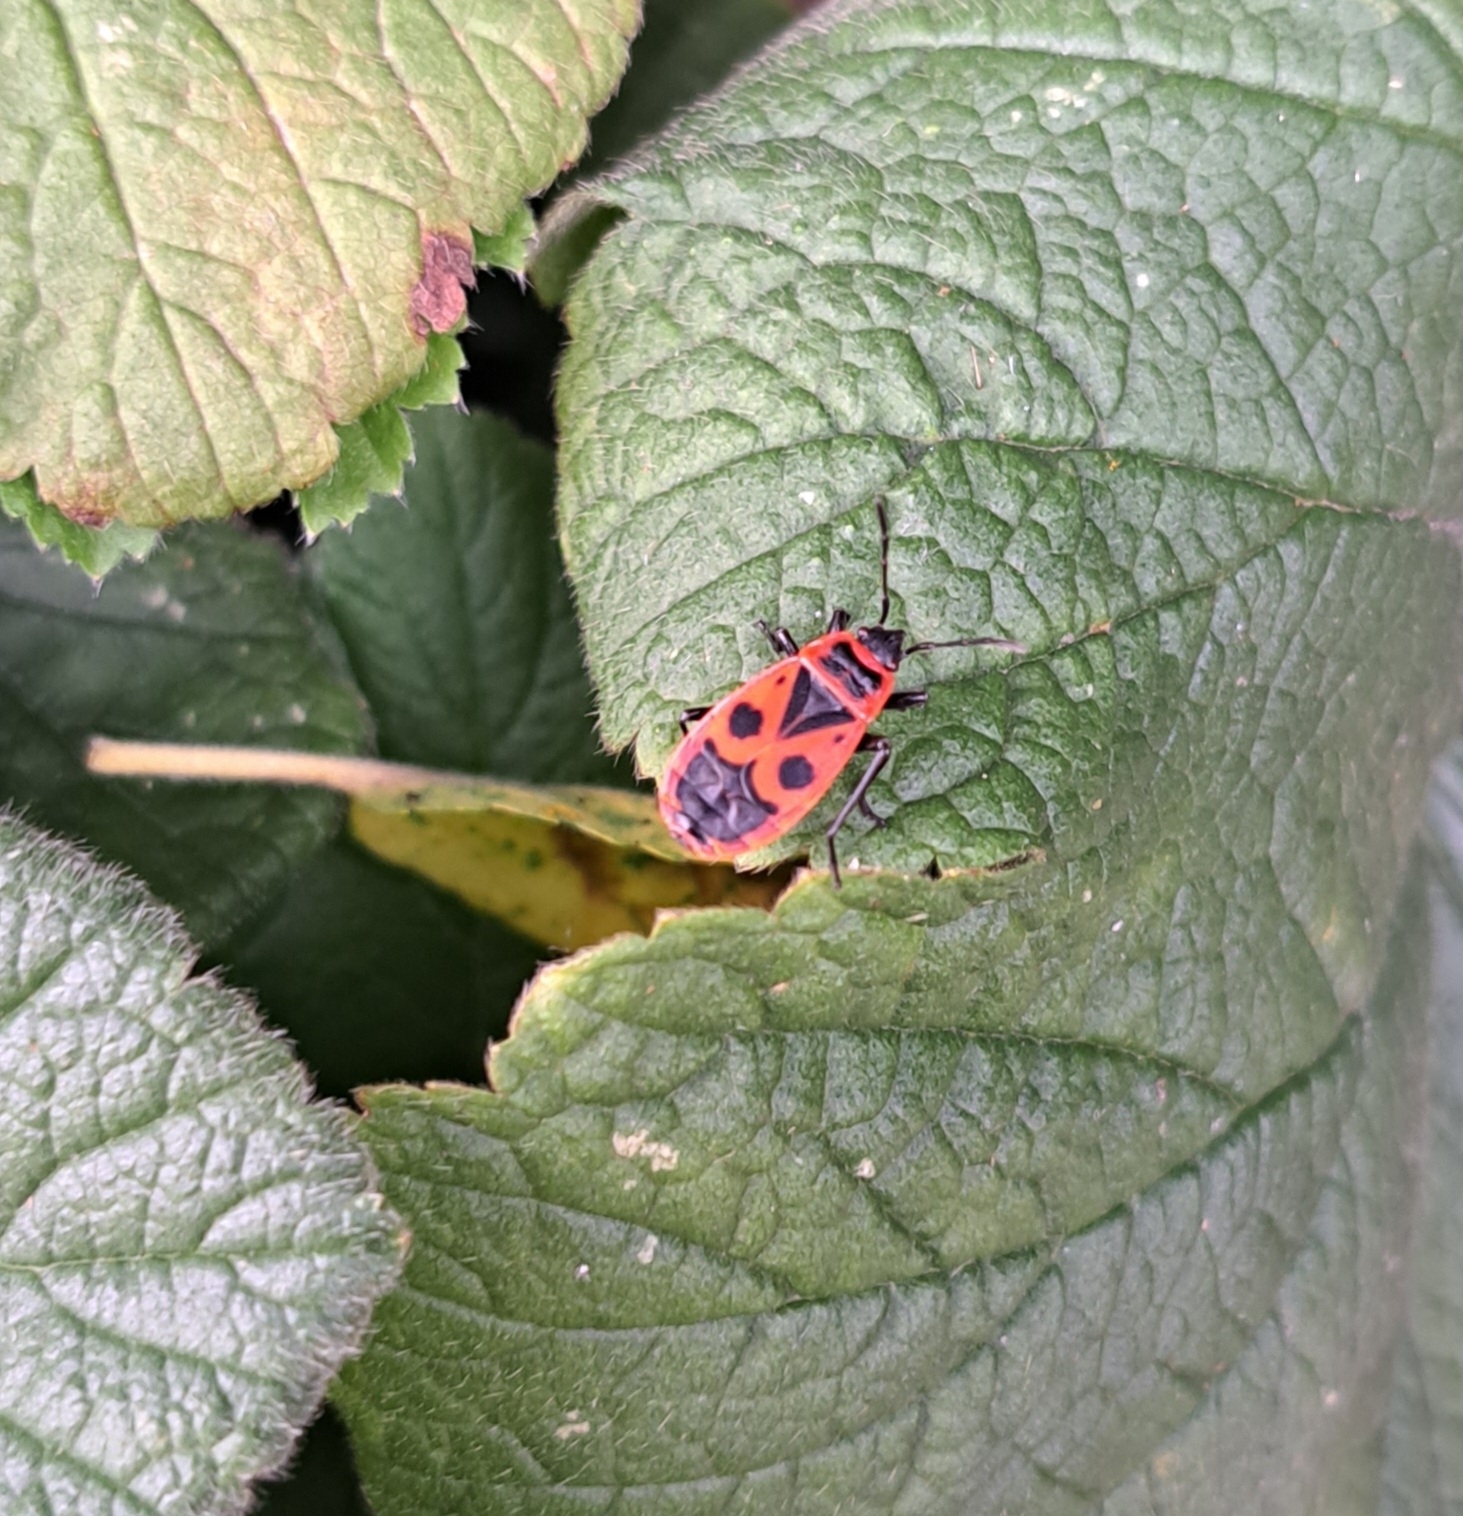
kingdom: Animalia
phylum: Arthropoda
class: Insecta
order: Hemiptera
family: Pyrrhocoridae
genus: Pyrrhocoris
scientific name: Pyrrhocoris apterus
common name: Firebug
